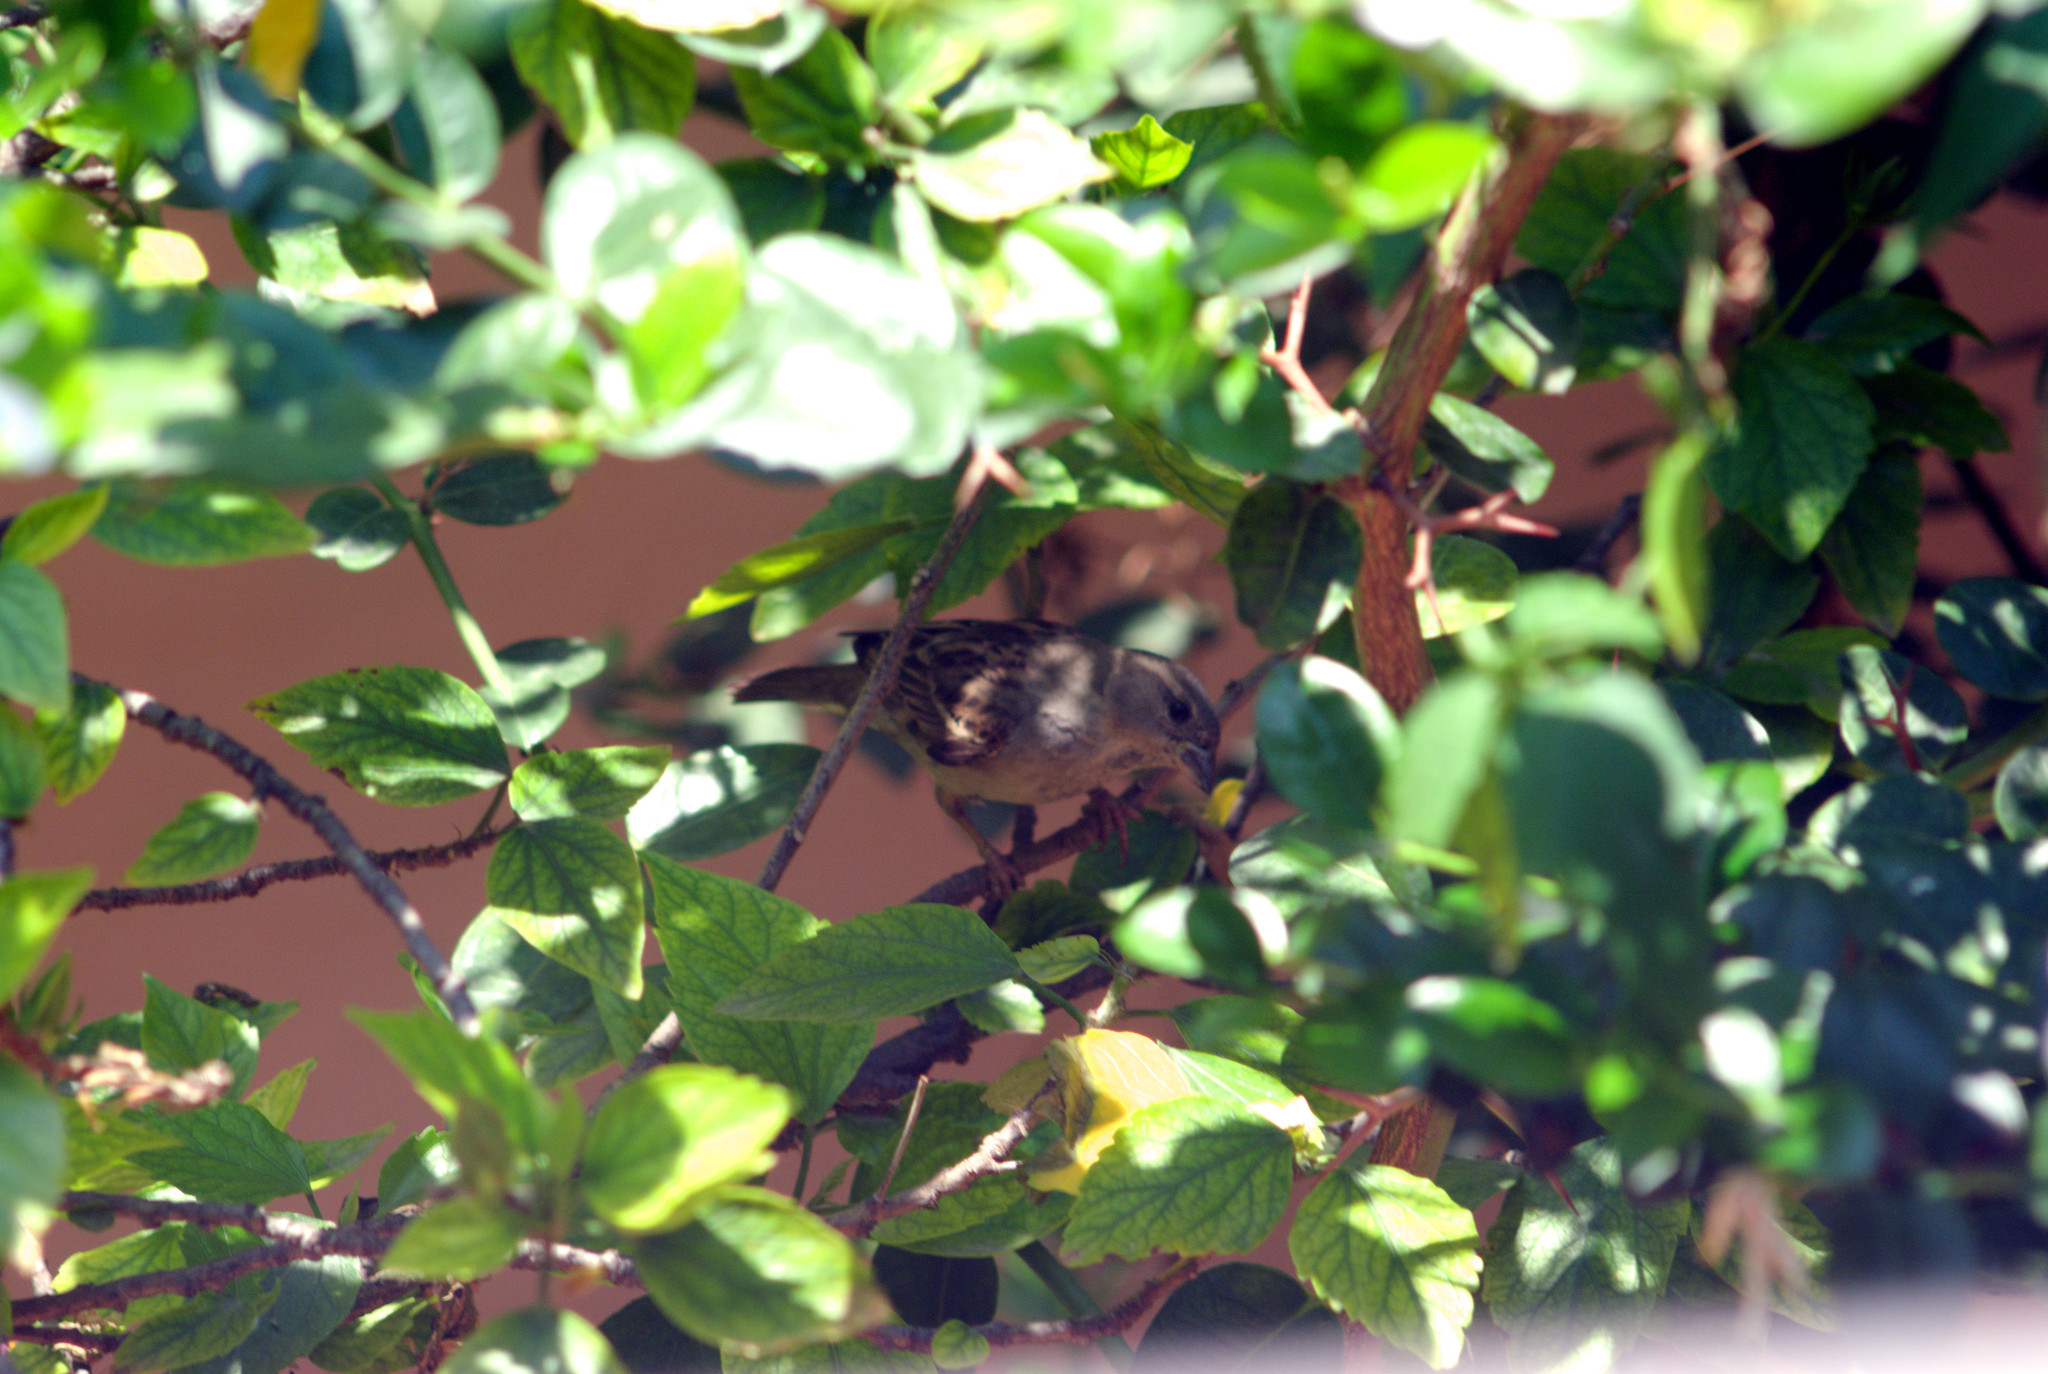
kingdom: Animalia
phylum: Chordata
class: Aves
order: Passeriformes
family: Passeridae
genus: Passer
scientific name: Passer domesticus
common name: House sparrow
